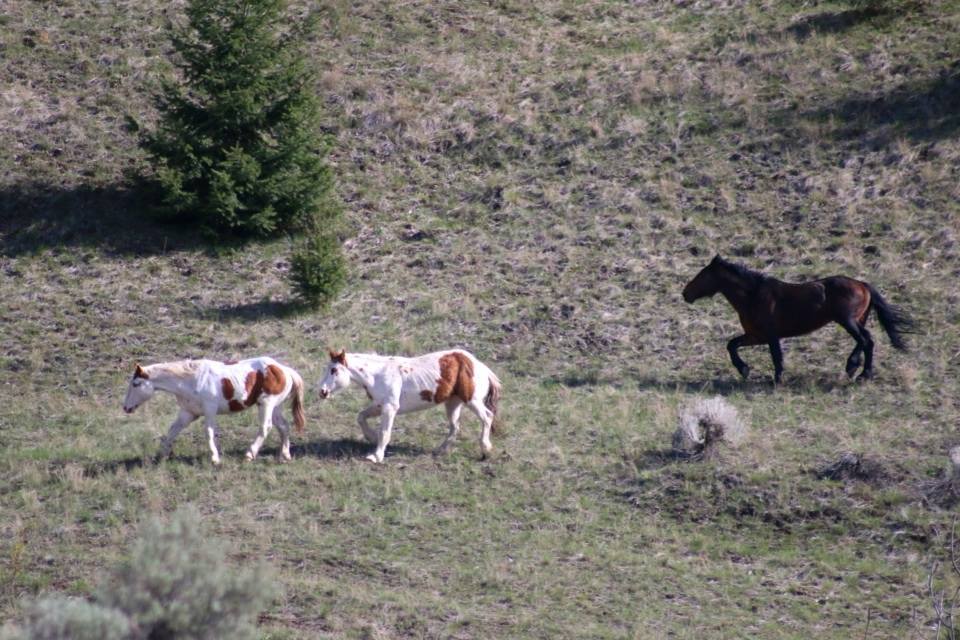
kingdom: Animalia
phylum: Chordata
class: Mammalia
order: Perissodactyla
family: Equidae
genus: Equus
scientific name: Equus caballus
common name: Horse
